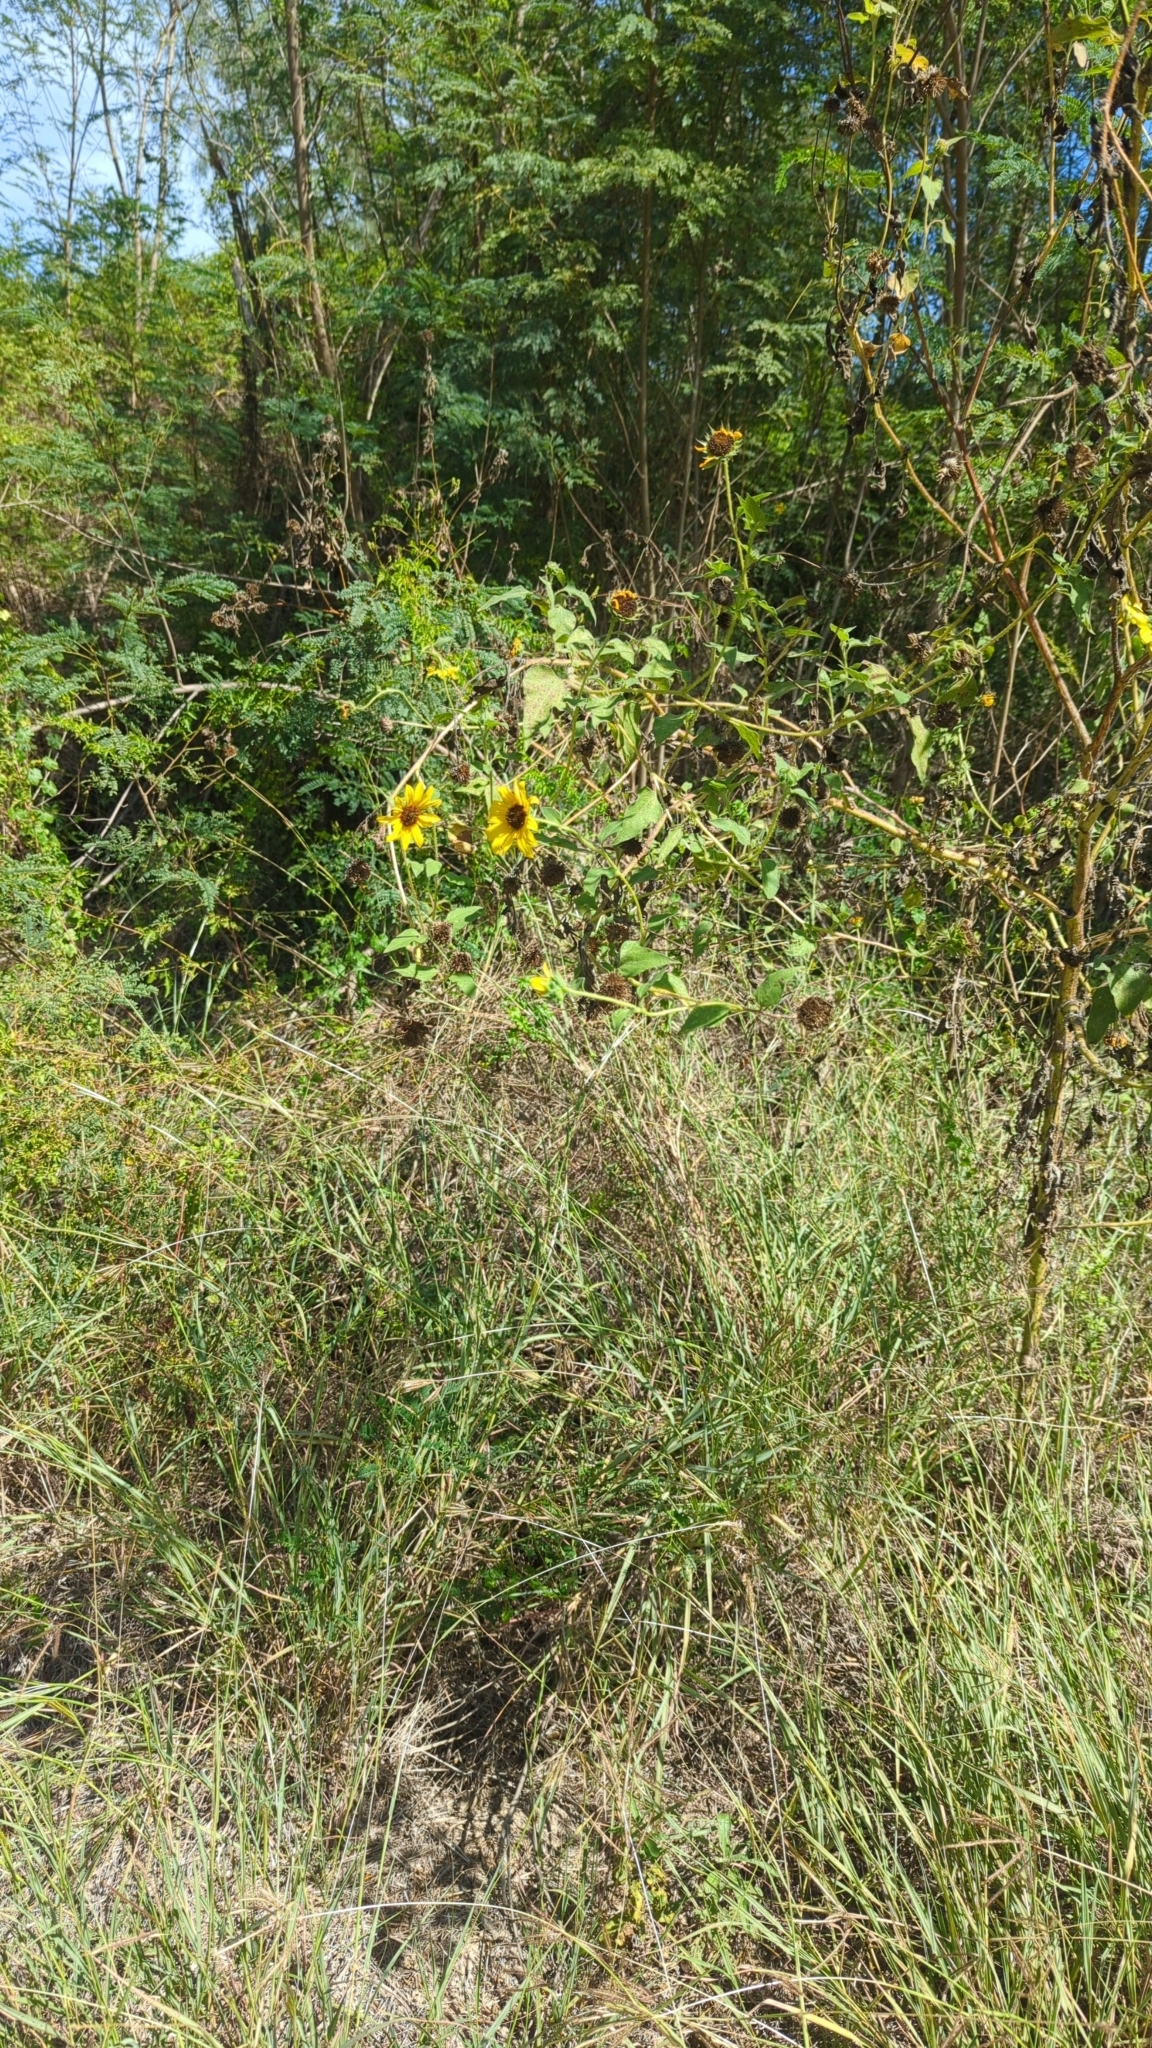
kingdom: Plantae
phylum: Tracheophyta
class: Magnoliopsida
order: Asterales
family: Asteraceae
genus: Helianthus
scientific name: Helianthus annuus
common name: Sunflower
